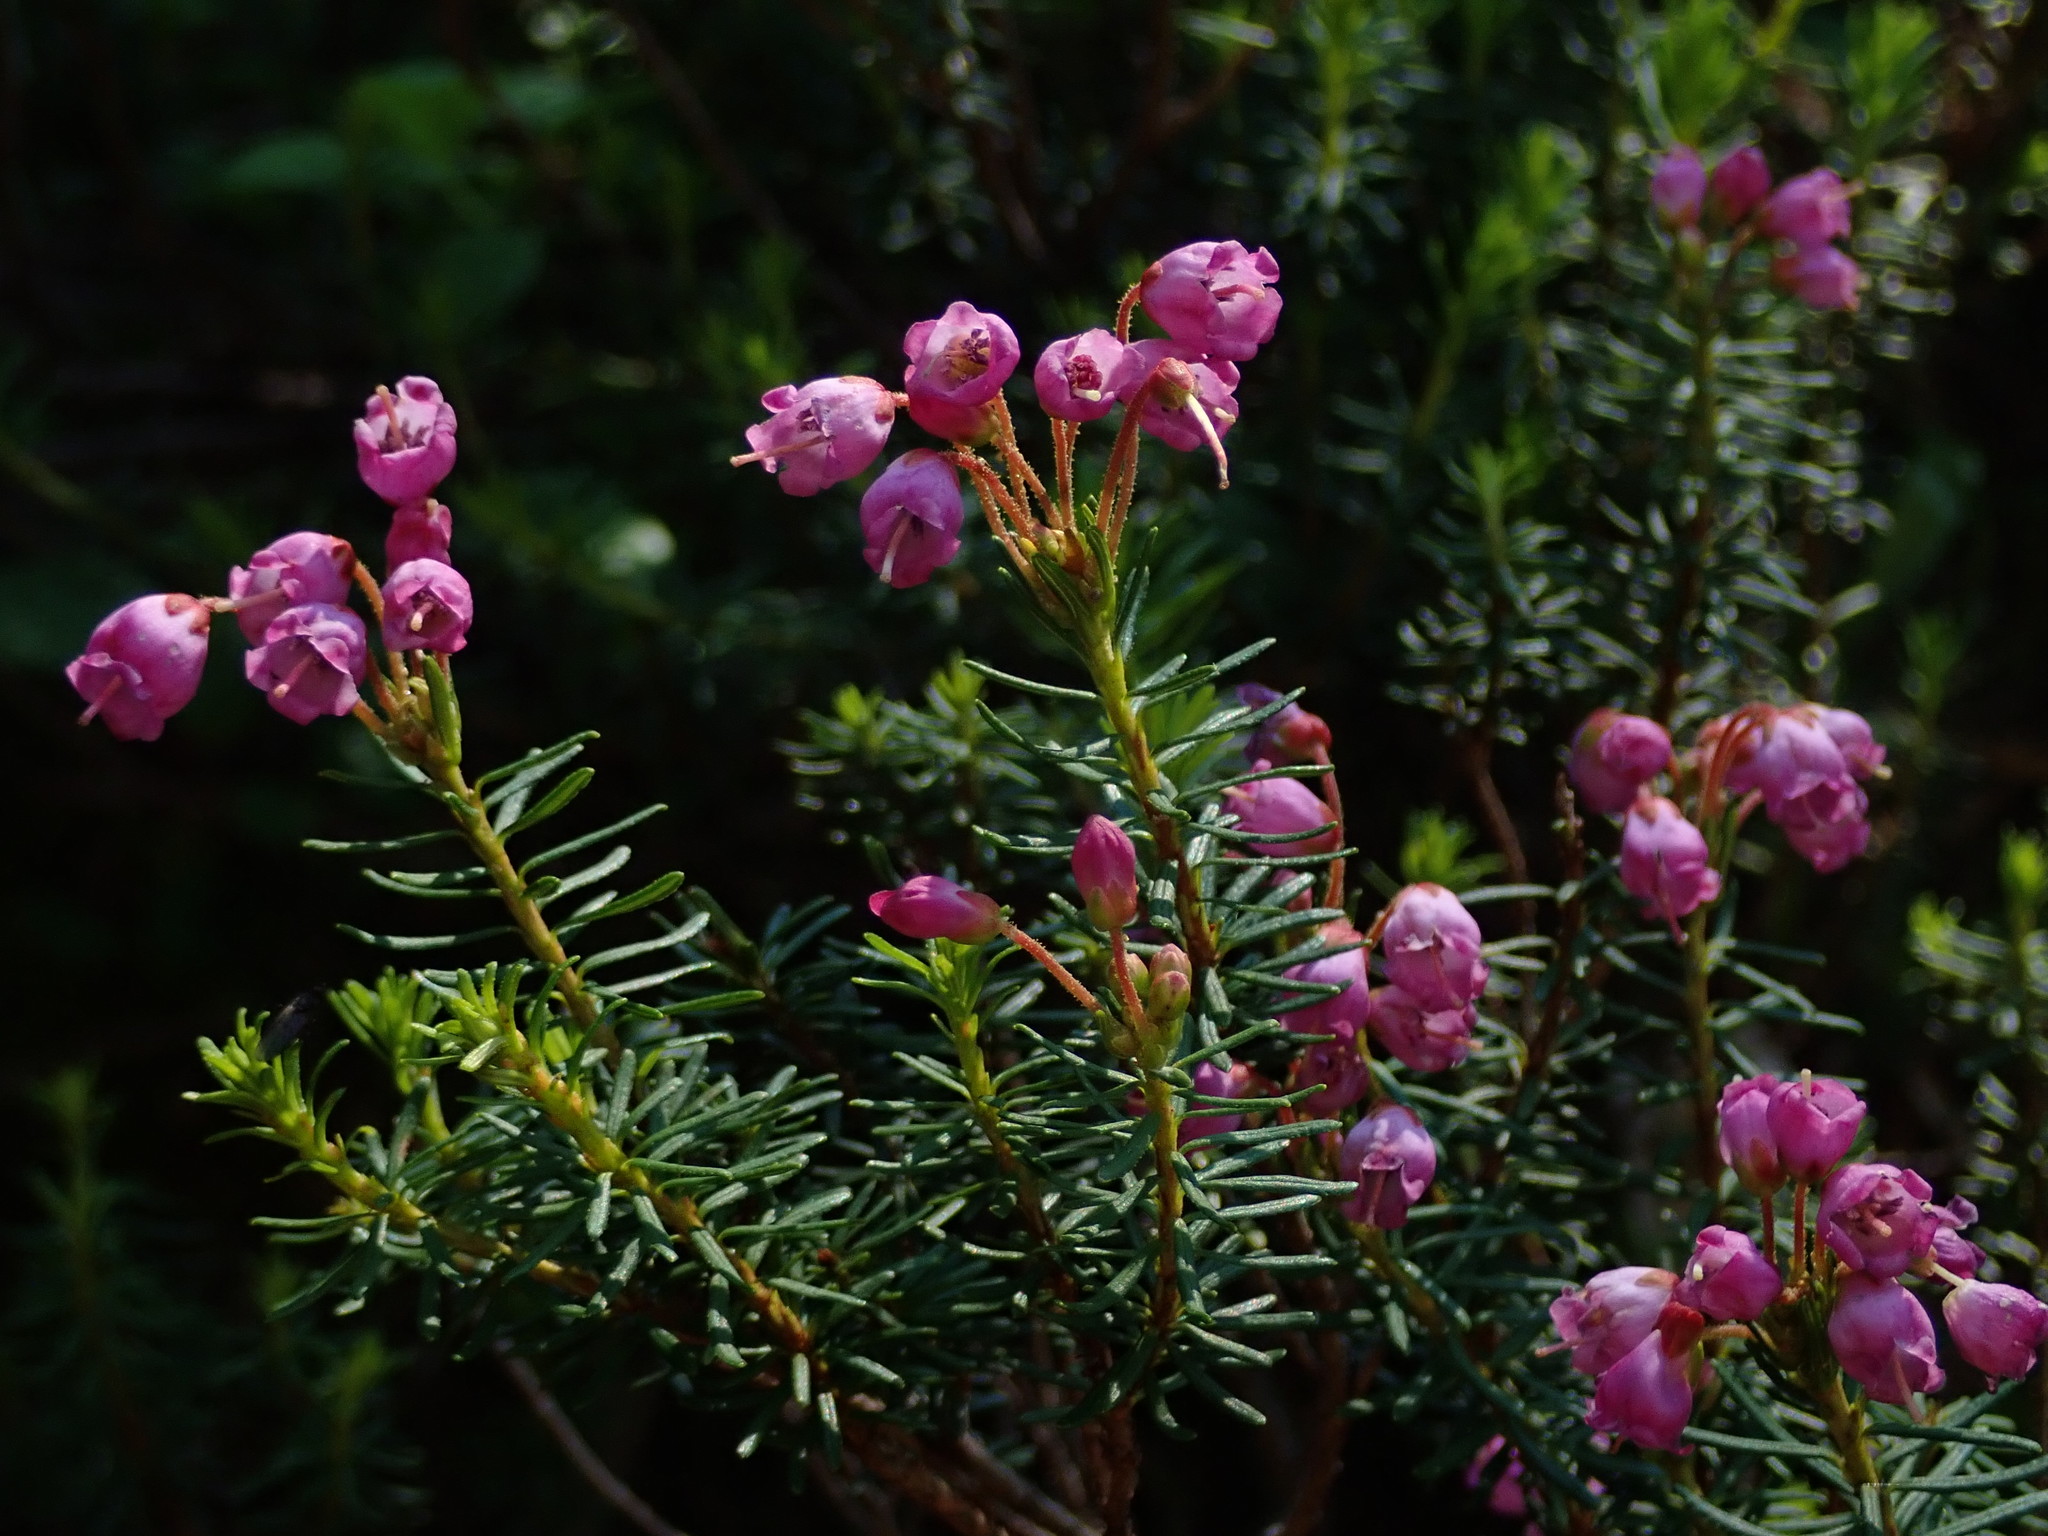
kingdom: Plantae
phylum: Tracheophyta
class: Magnoliopsida
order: Ericales
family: Ericaceae
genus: Phyllodoce
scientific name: Phyllodoce empetriformis
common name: Pink mountain heather
